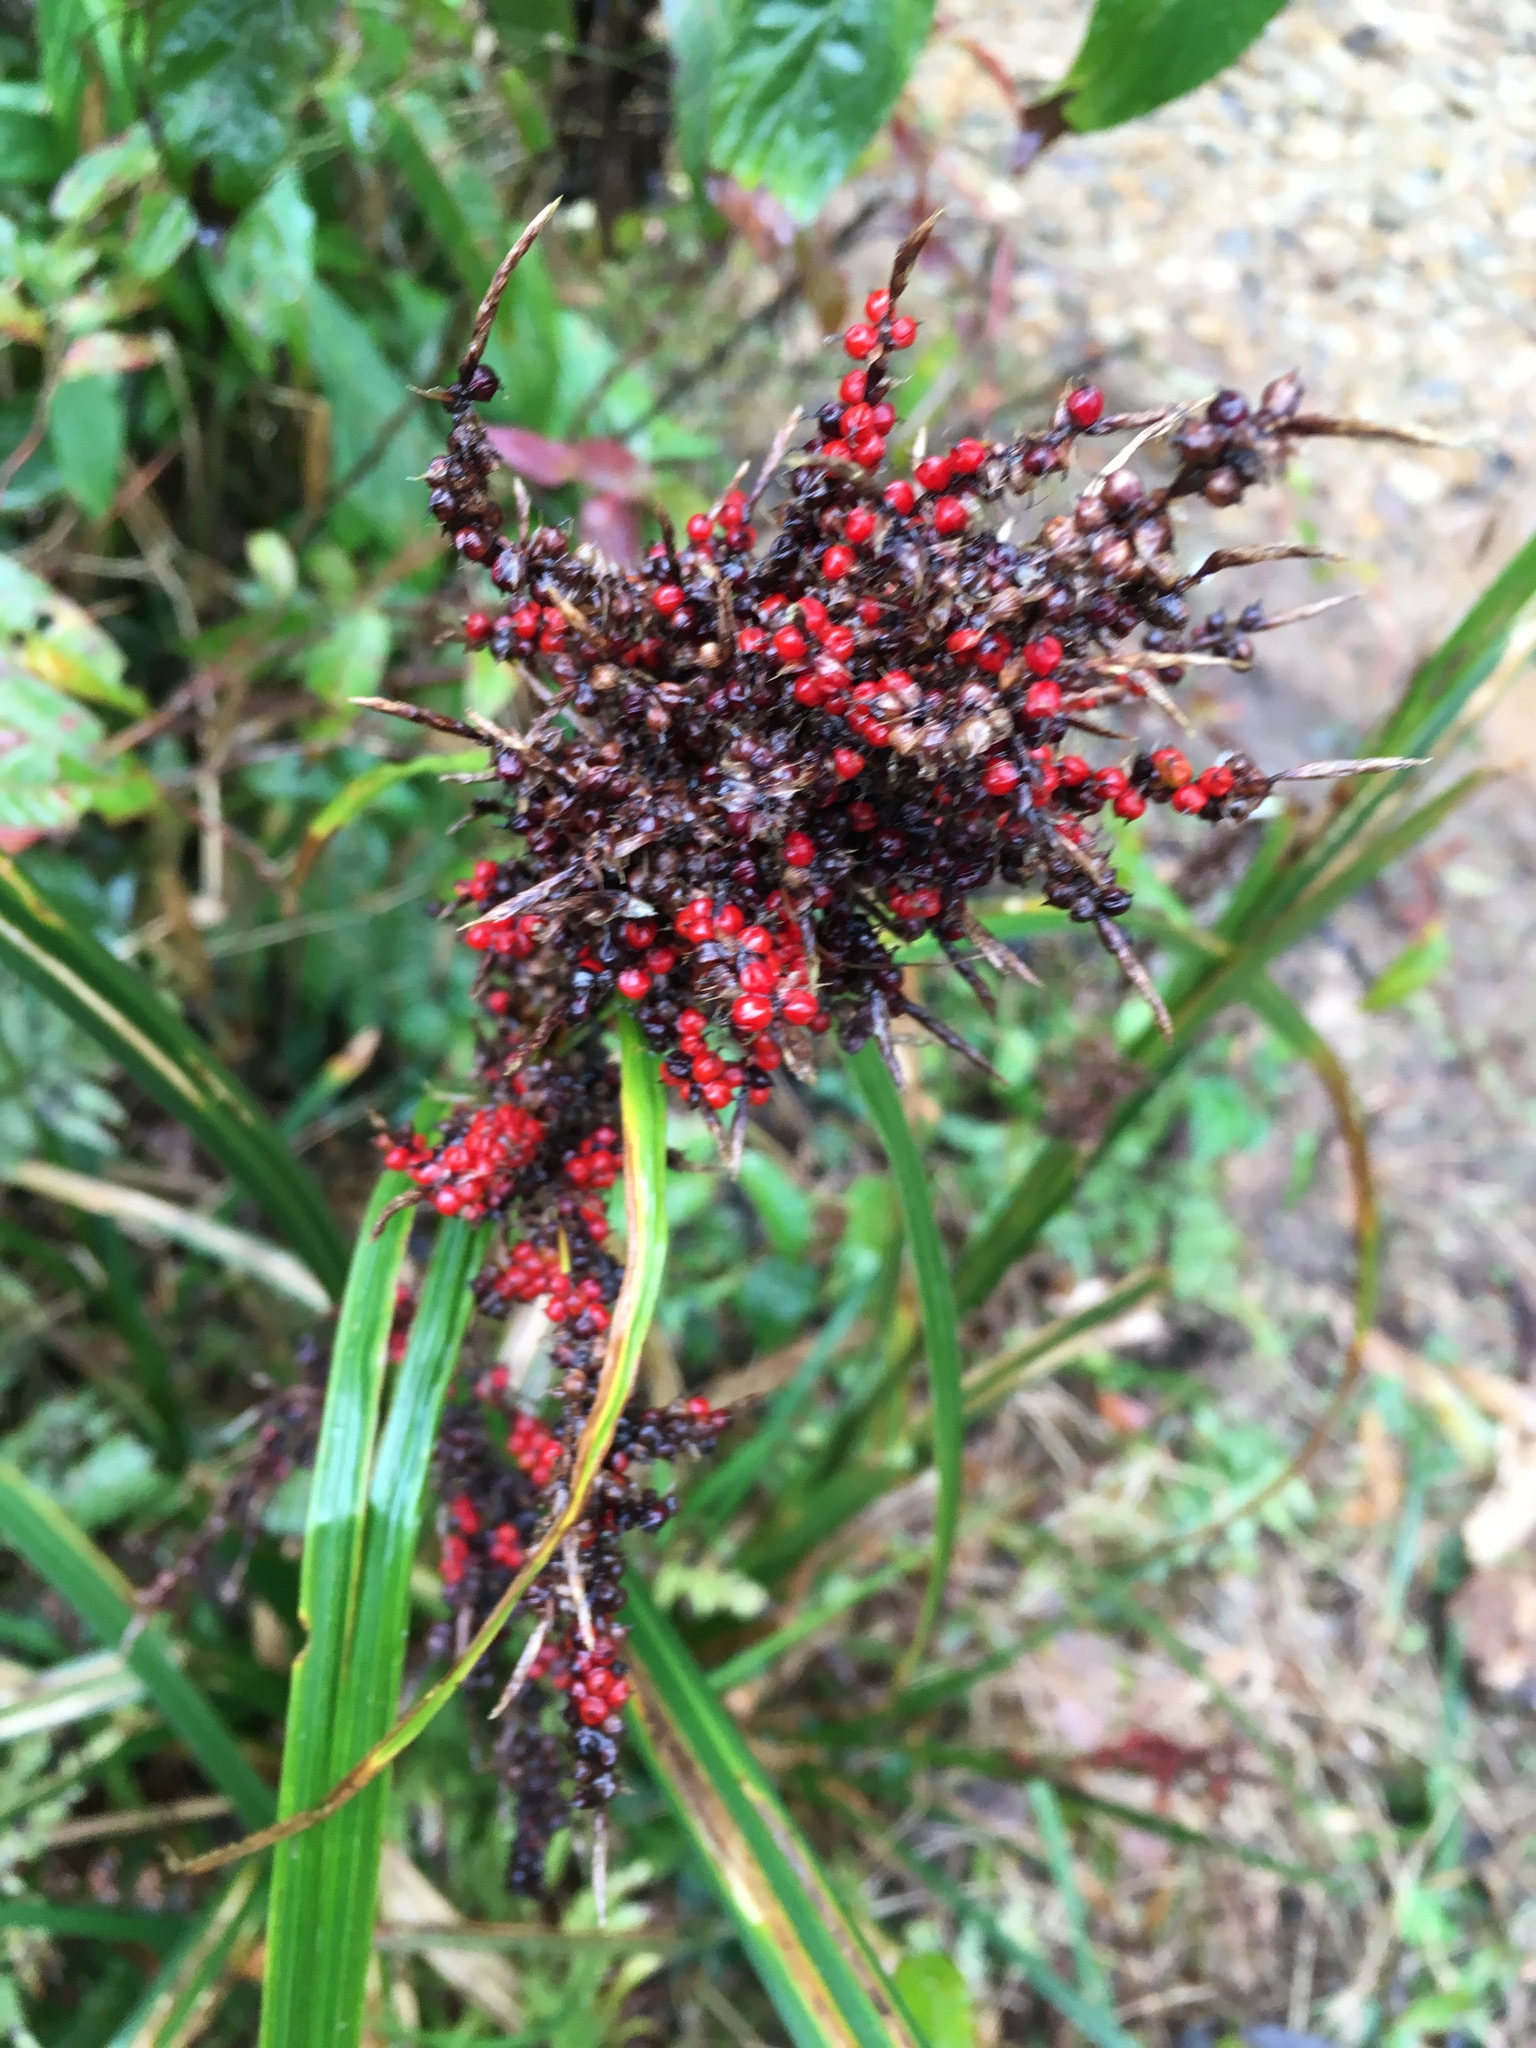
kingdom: Plantae
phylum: Tracheophyta
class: Liliopsida
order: Poales
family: Cyperaceae
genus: Carex
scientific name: Carex baccans
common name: Crimson seeded sedge
